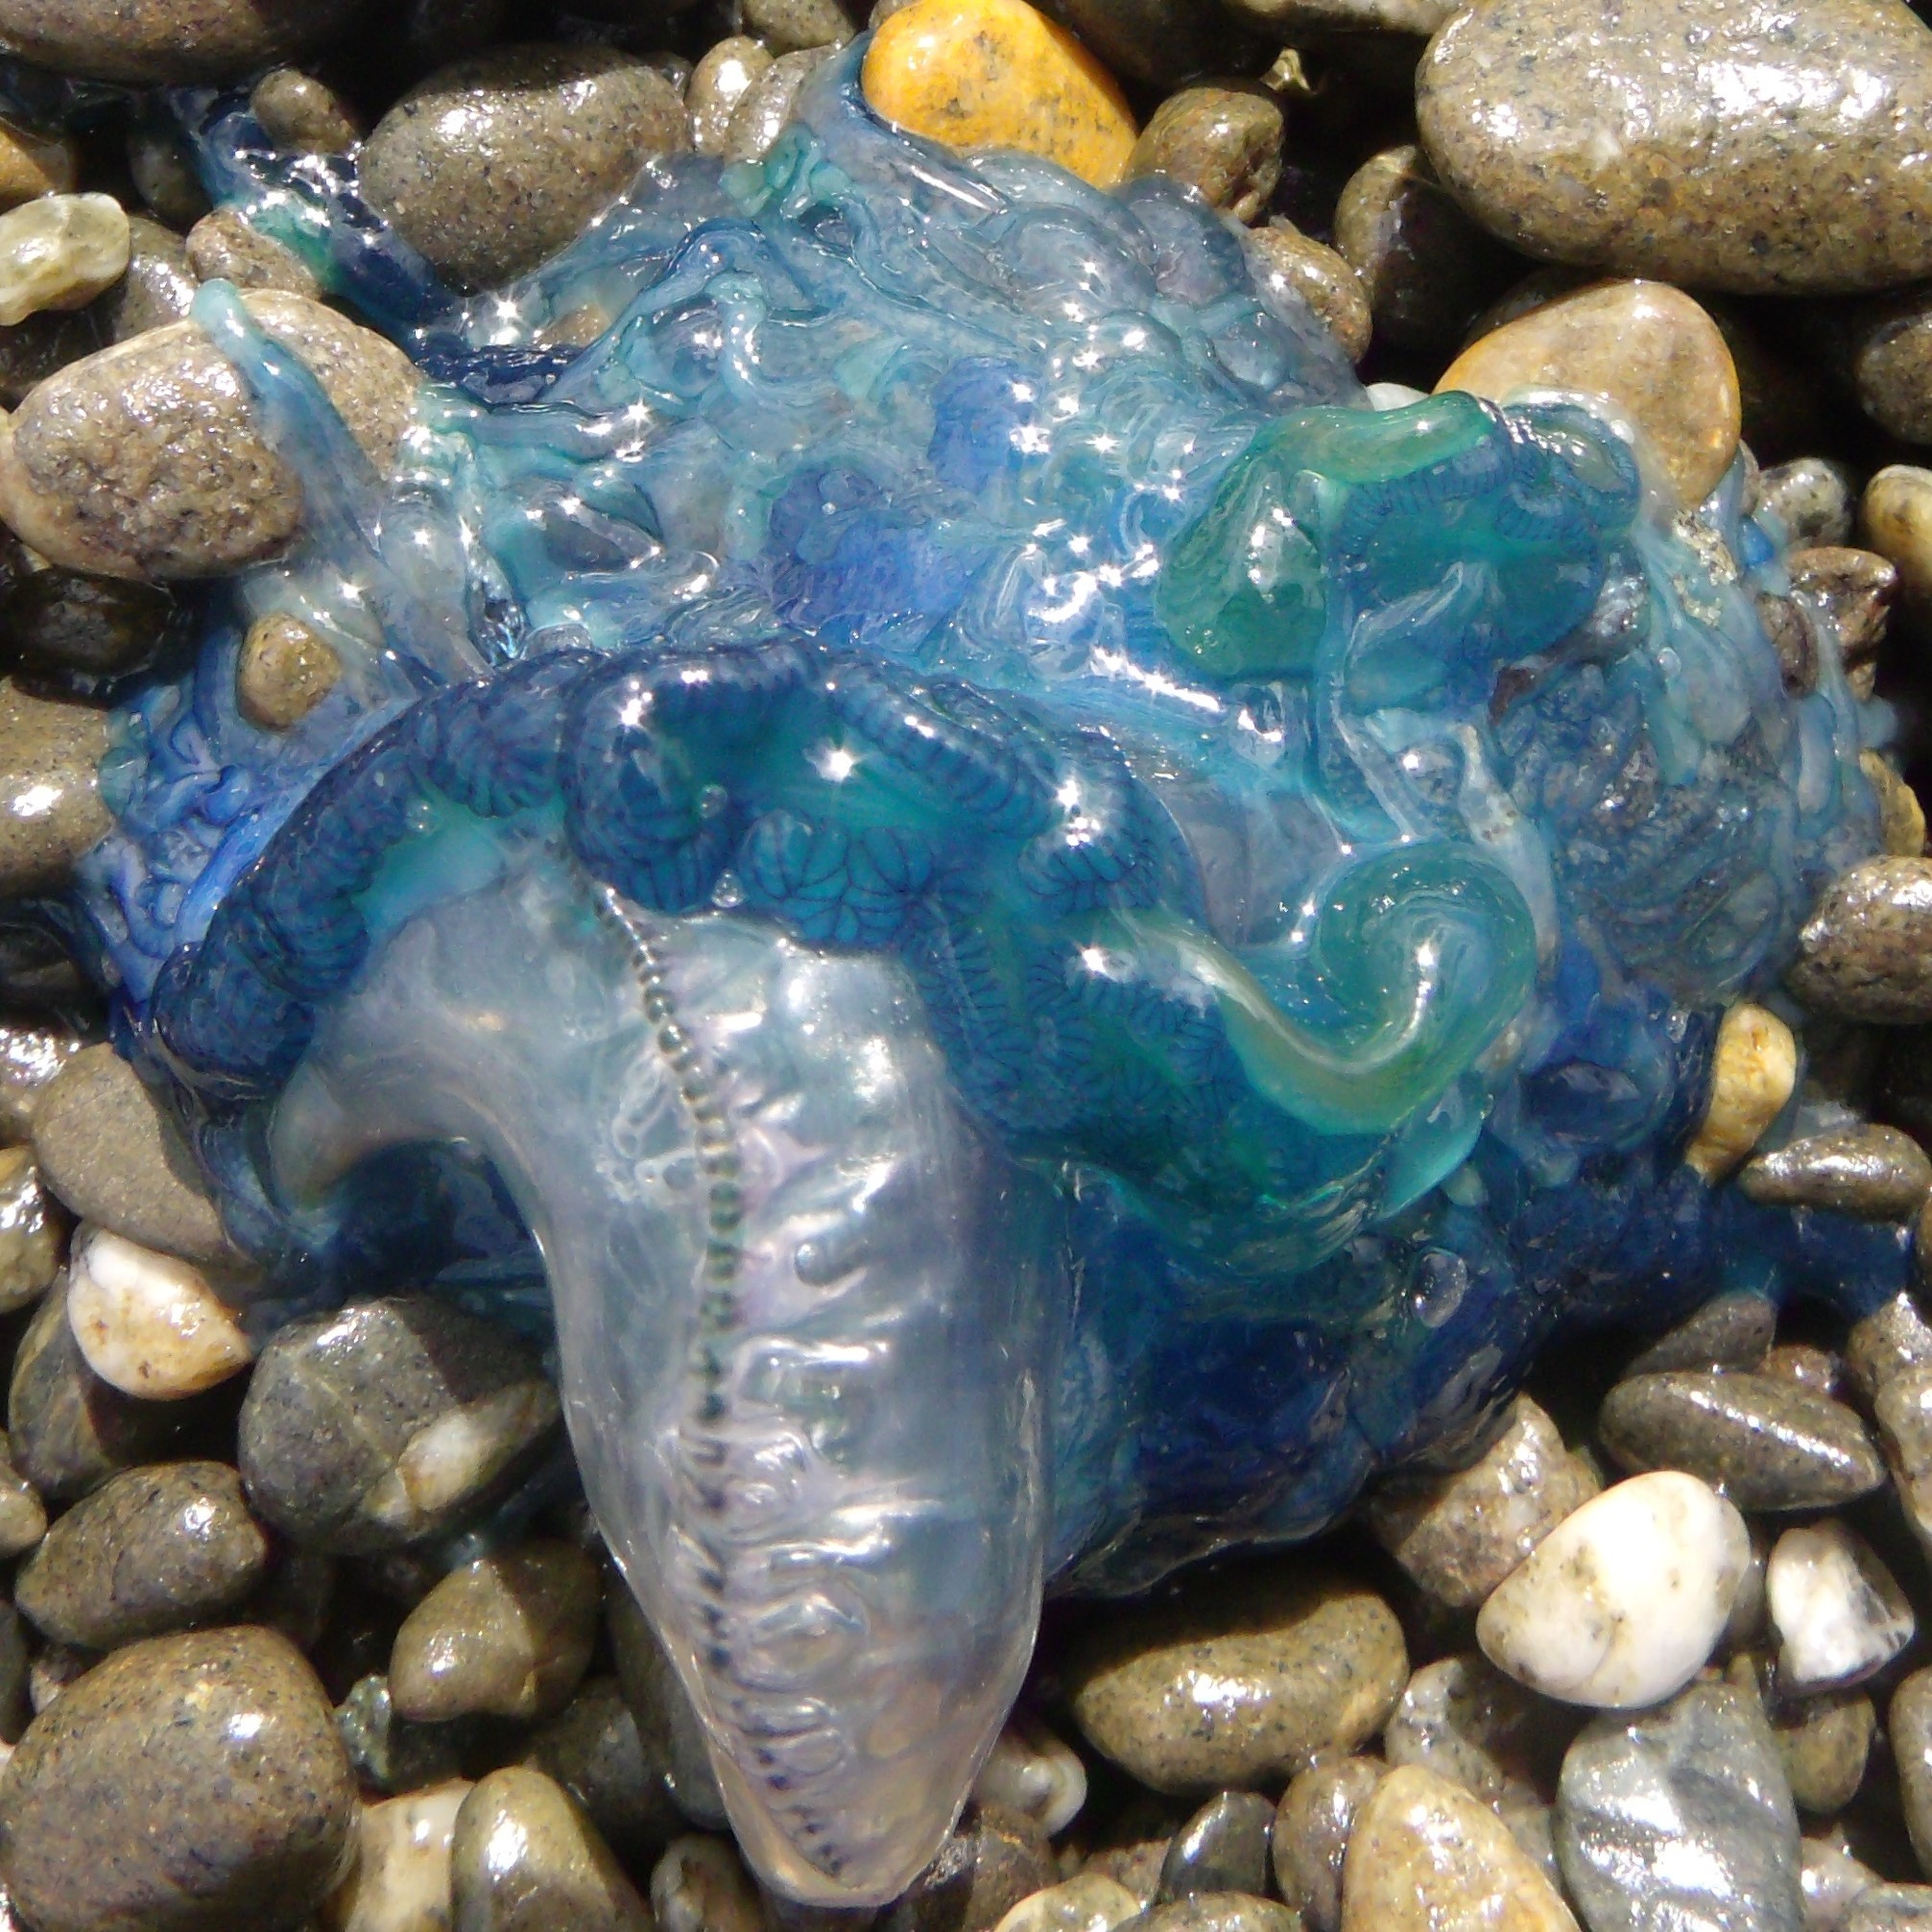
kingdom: Animalia
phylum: Cnidaria
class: Hydrozoa
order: Siphonophorae
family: Physaliidae
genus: Physalia
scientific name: Physalia physalis
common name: Portuguese man-of-war
